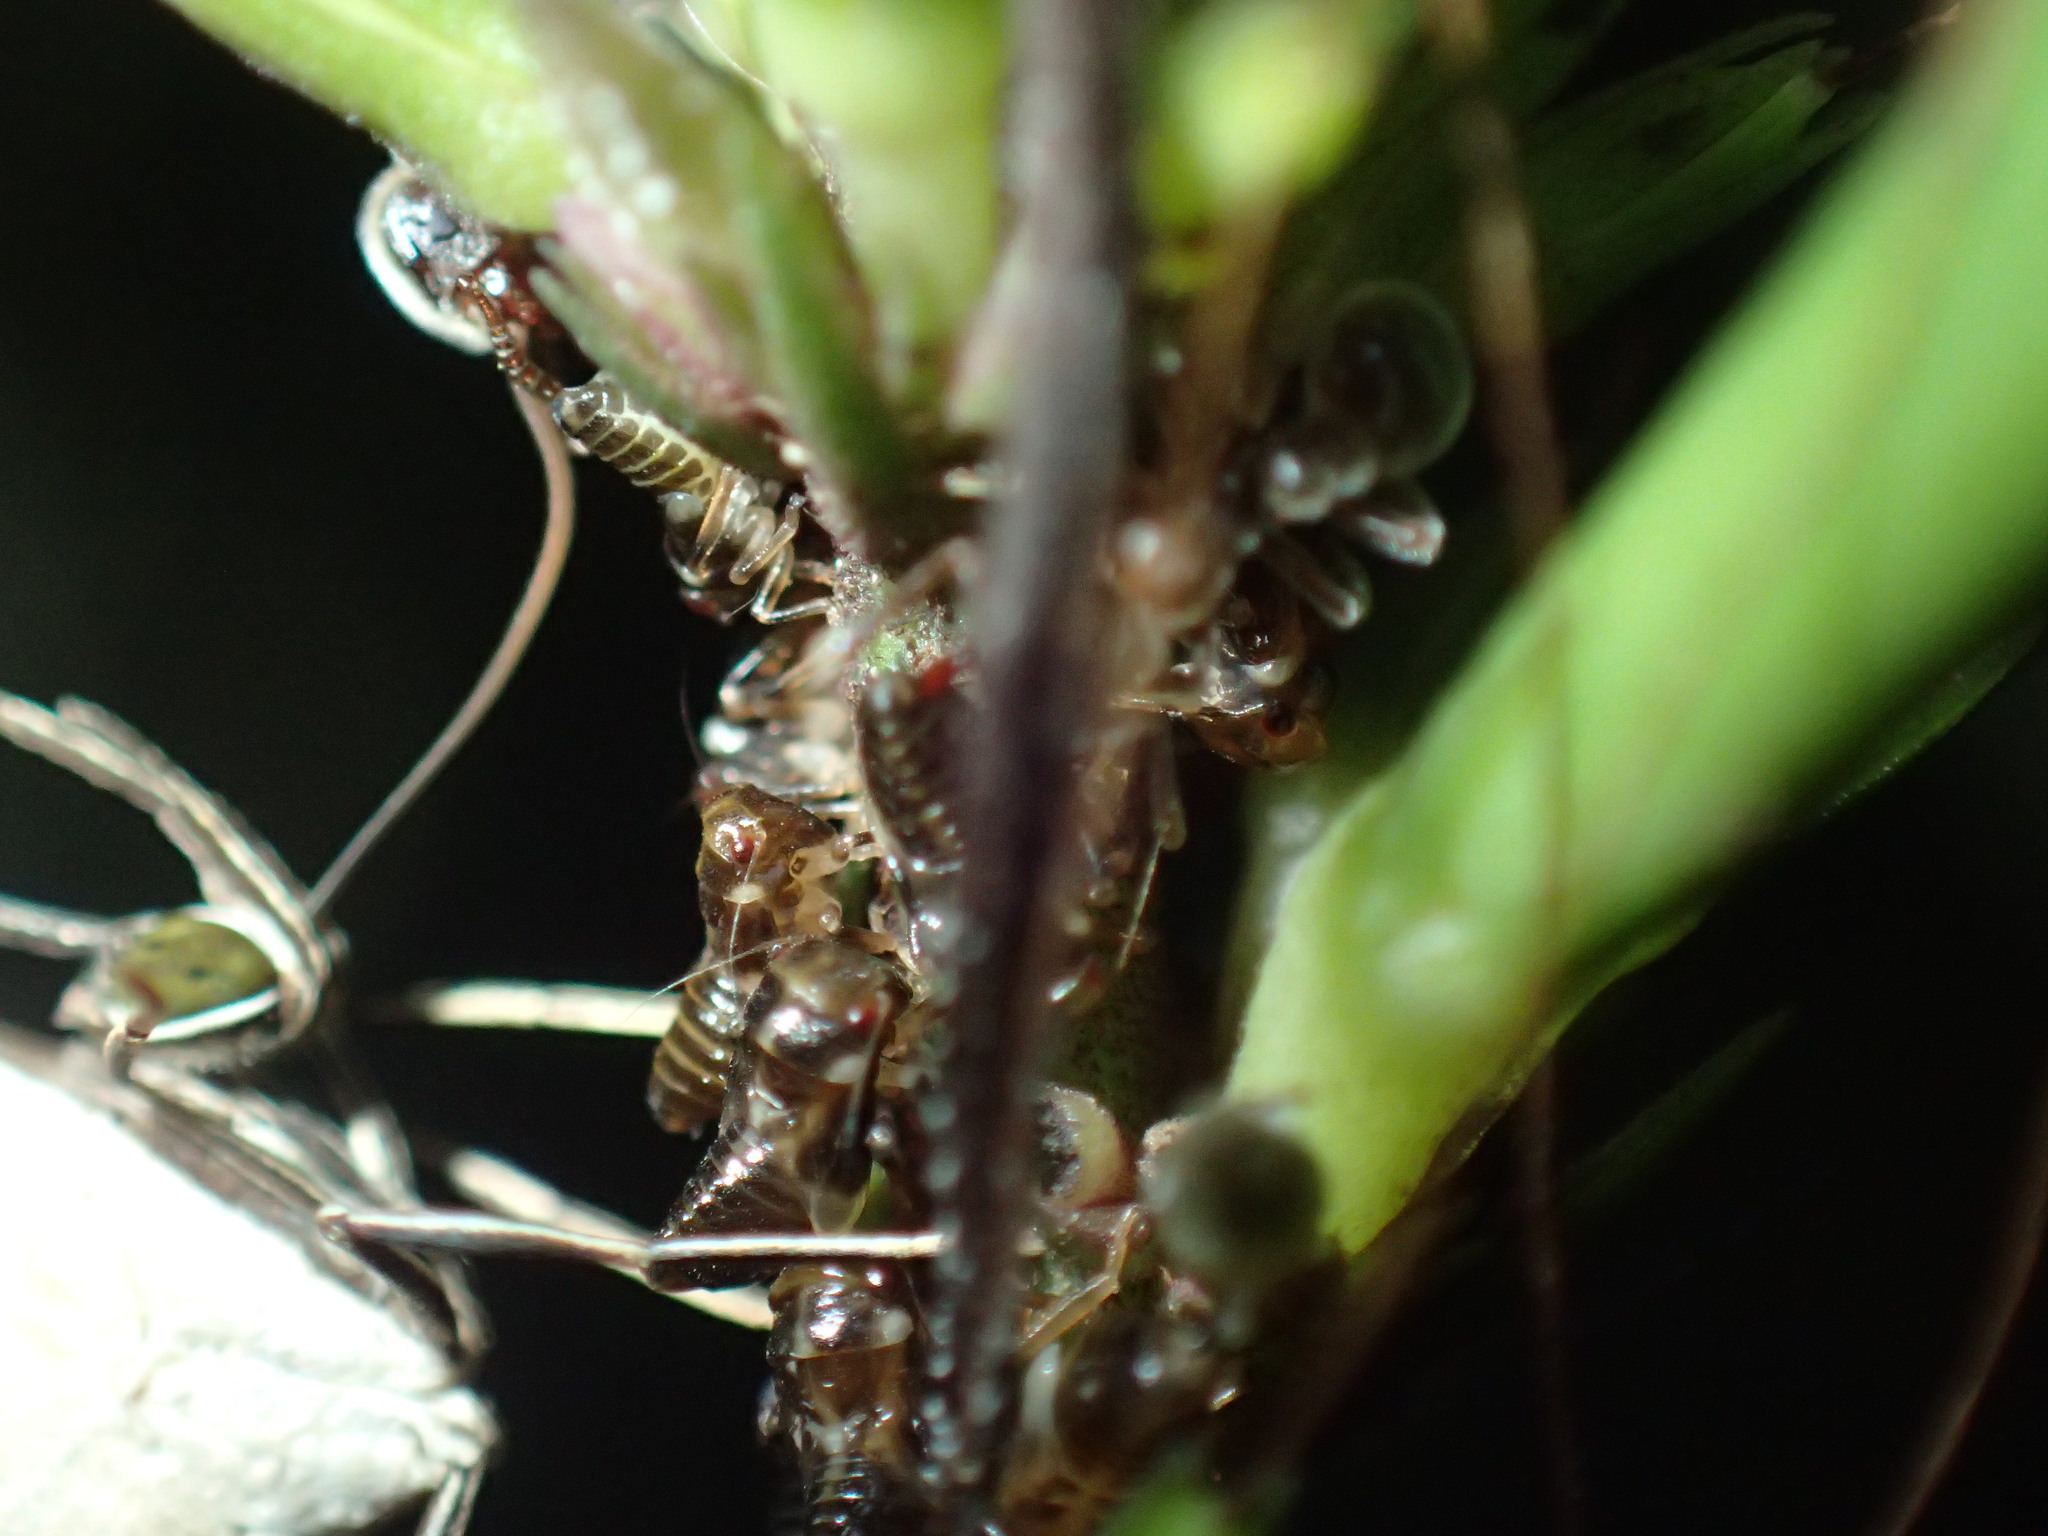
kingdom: Animalia
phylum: Arthropoda
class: Insecta
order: Hymenoptera
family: Formicidae
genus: Tetramorium
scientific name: Tetramorium gabonense
